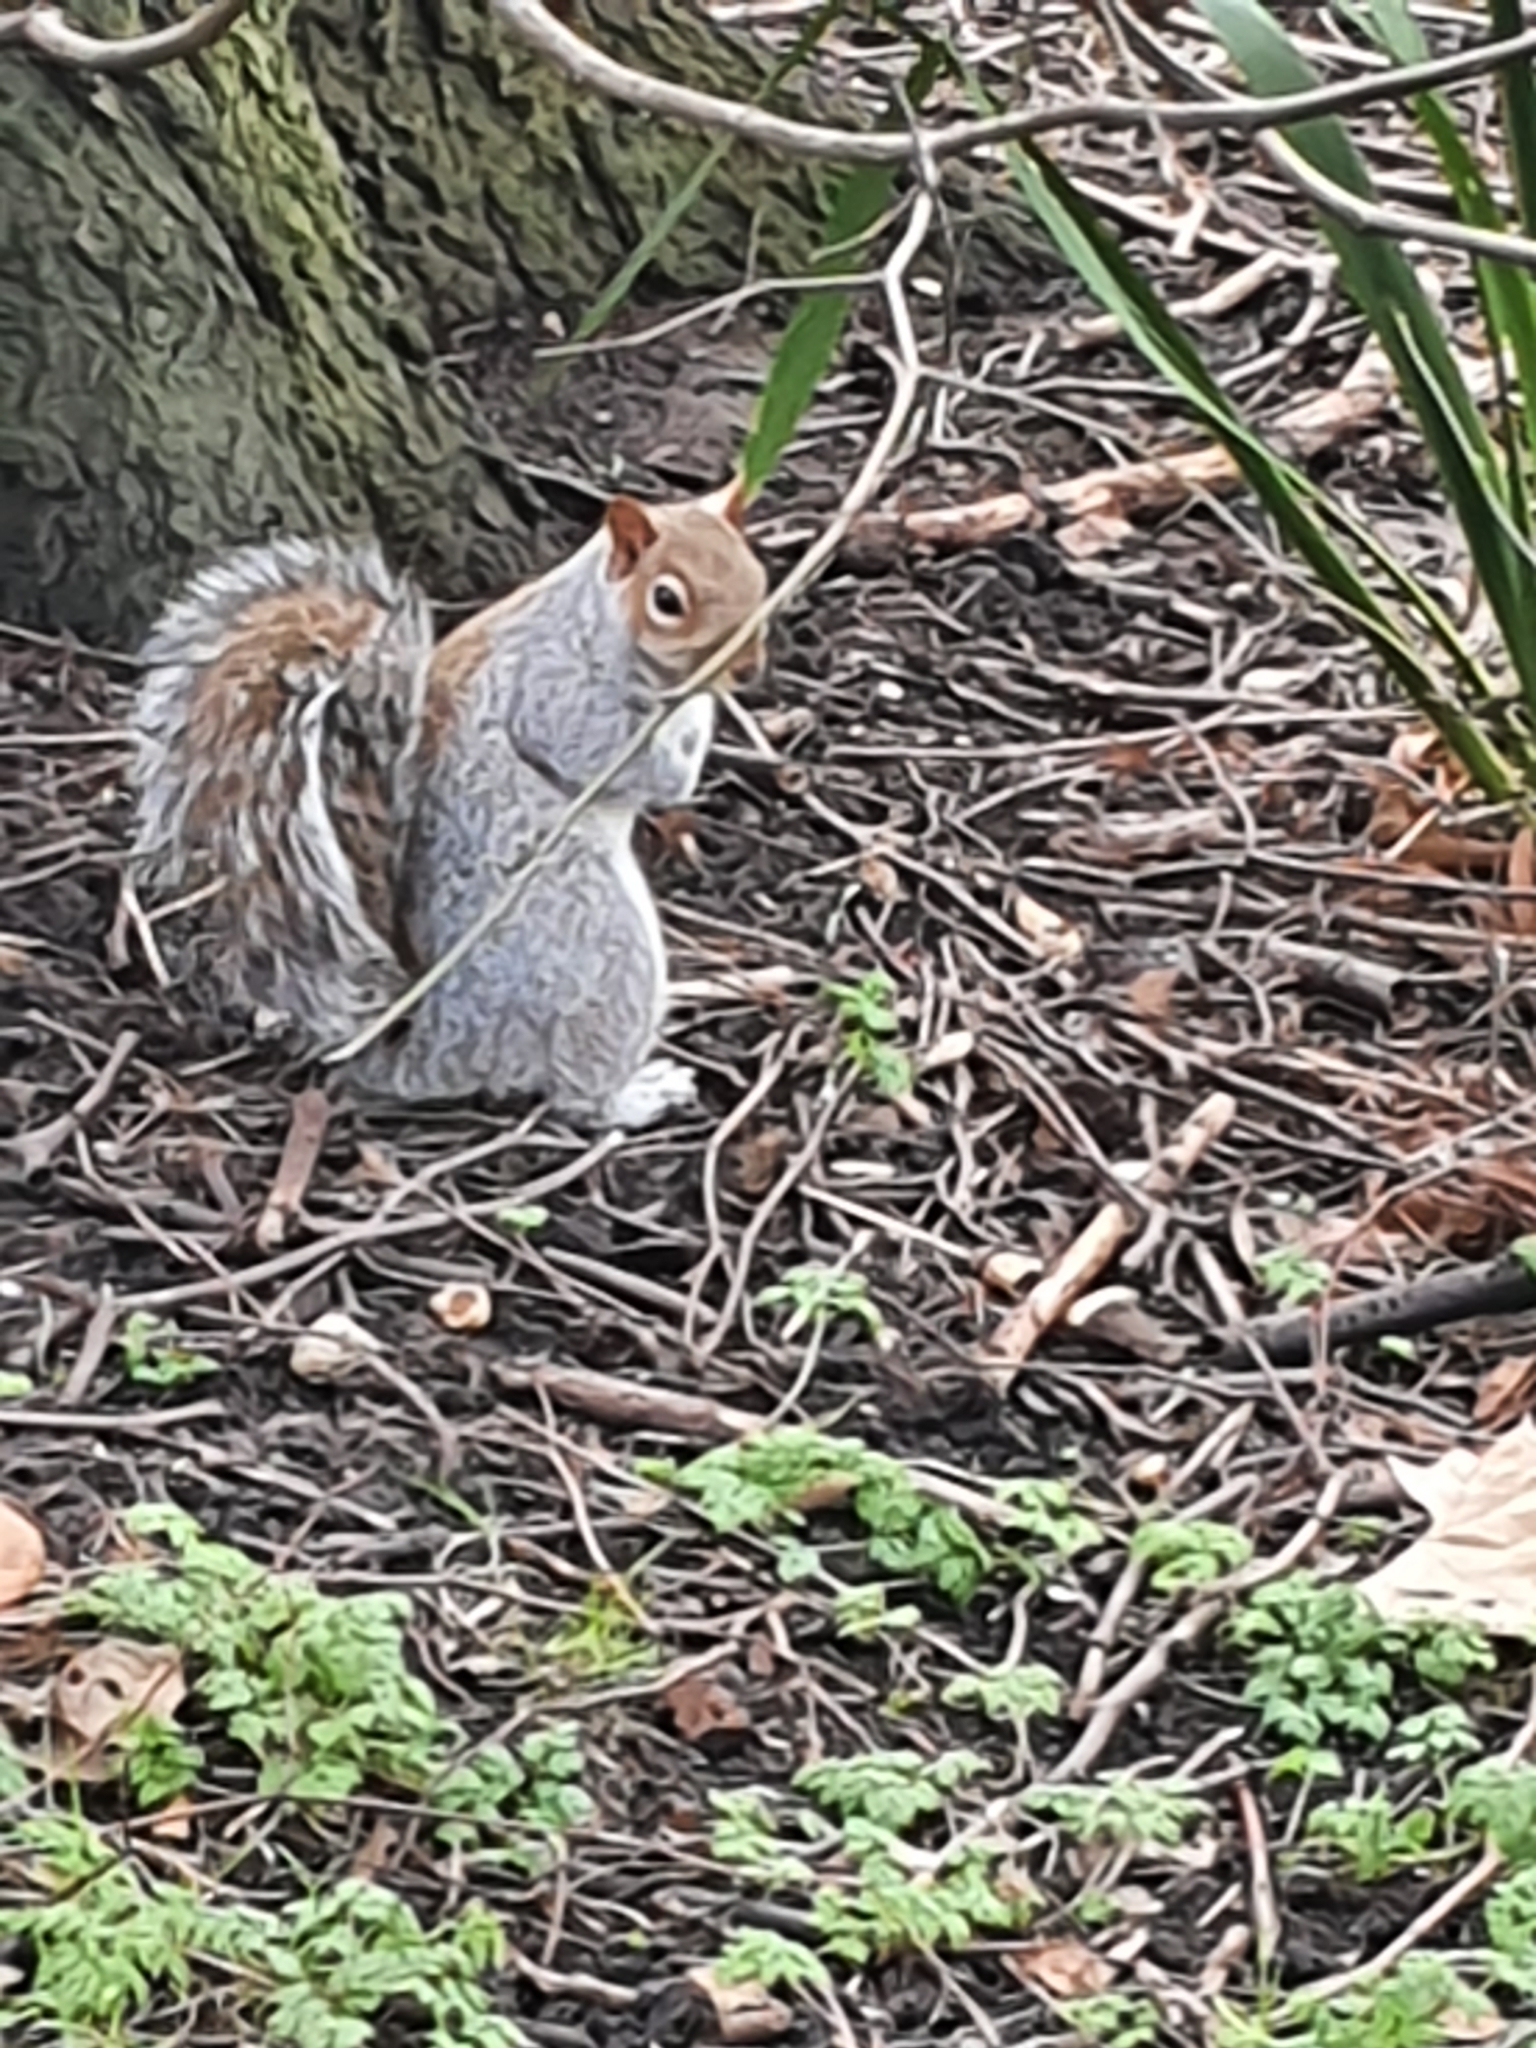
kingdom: Animalia
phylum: Chordata
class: Mammalia
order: Rodentia
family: Sciuridae
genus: Sciurus
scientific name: Sciurus carolinensis
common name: Eastern gray squirrel
